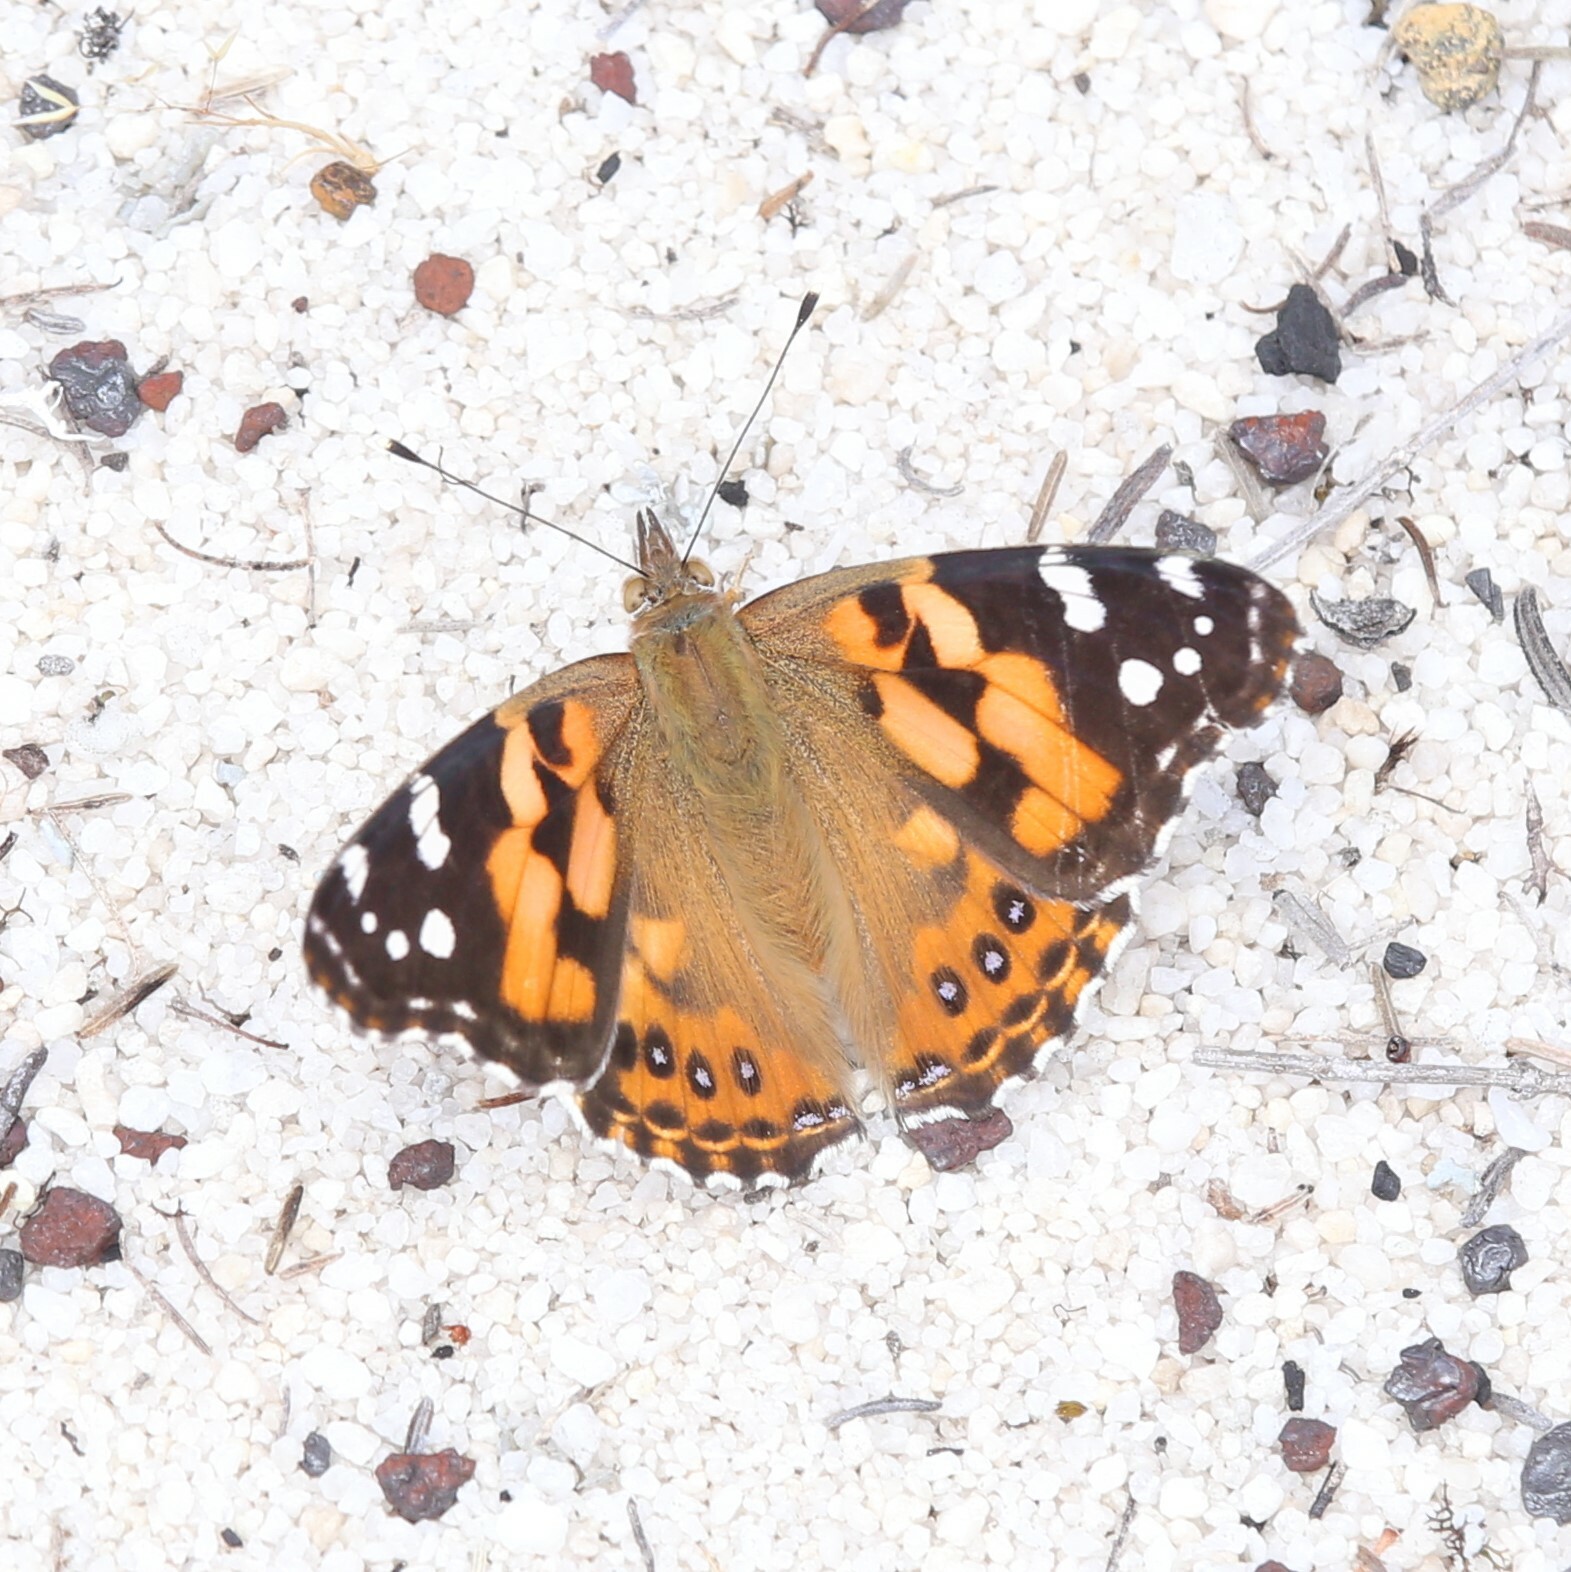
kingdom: Animalia
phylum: Arthropoda
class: Insecta
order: Lepidoptera
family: Nymphalidae
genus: Vanessa
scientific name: Vanessa kershawi
